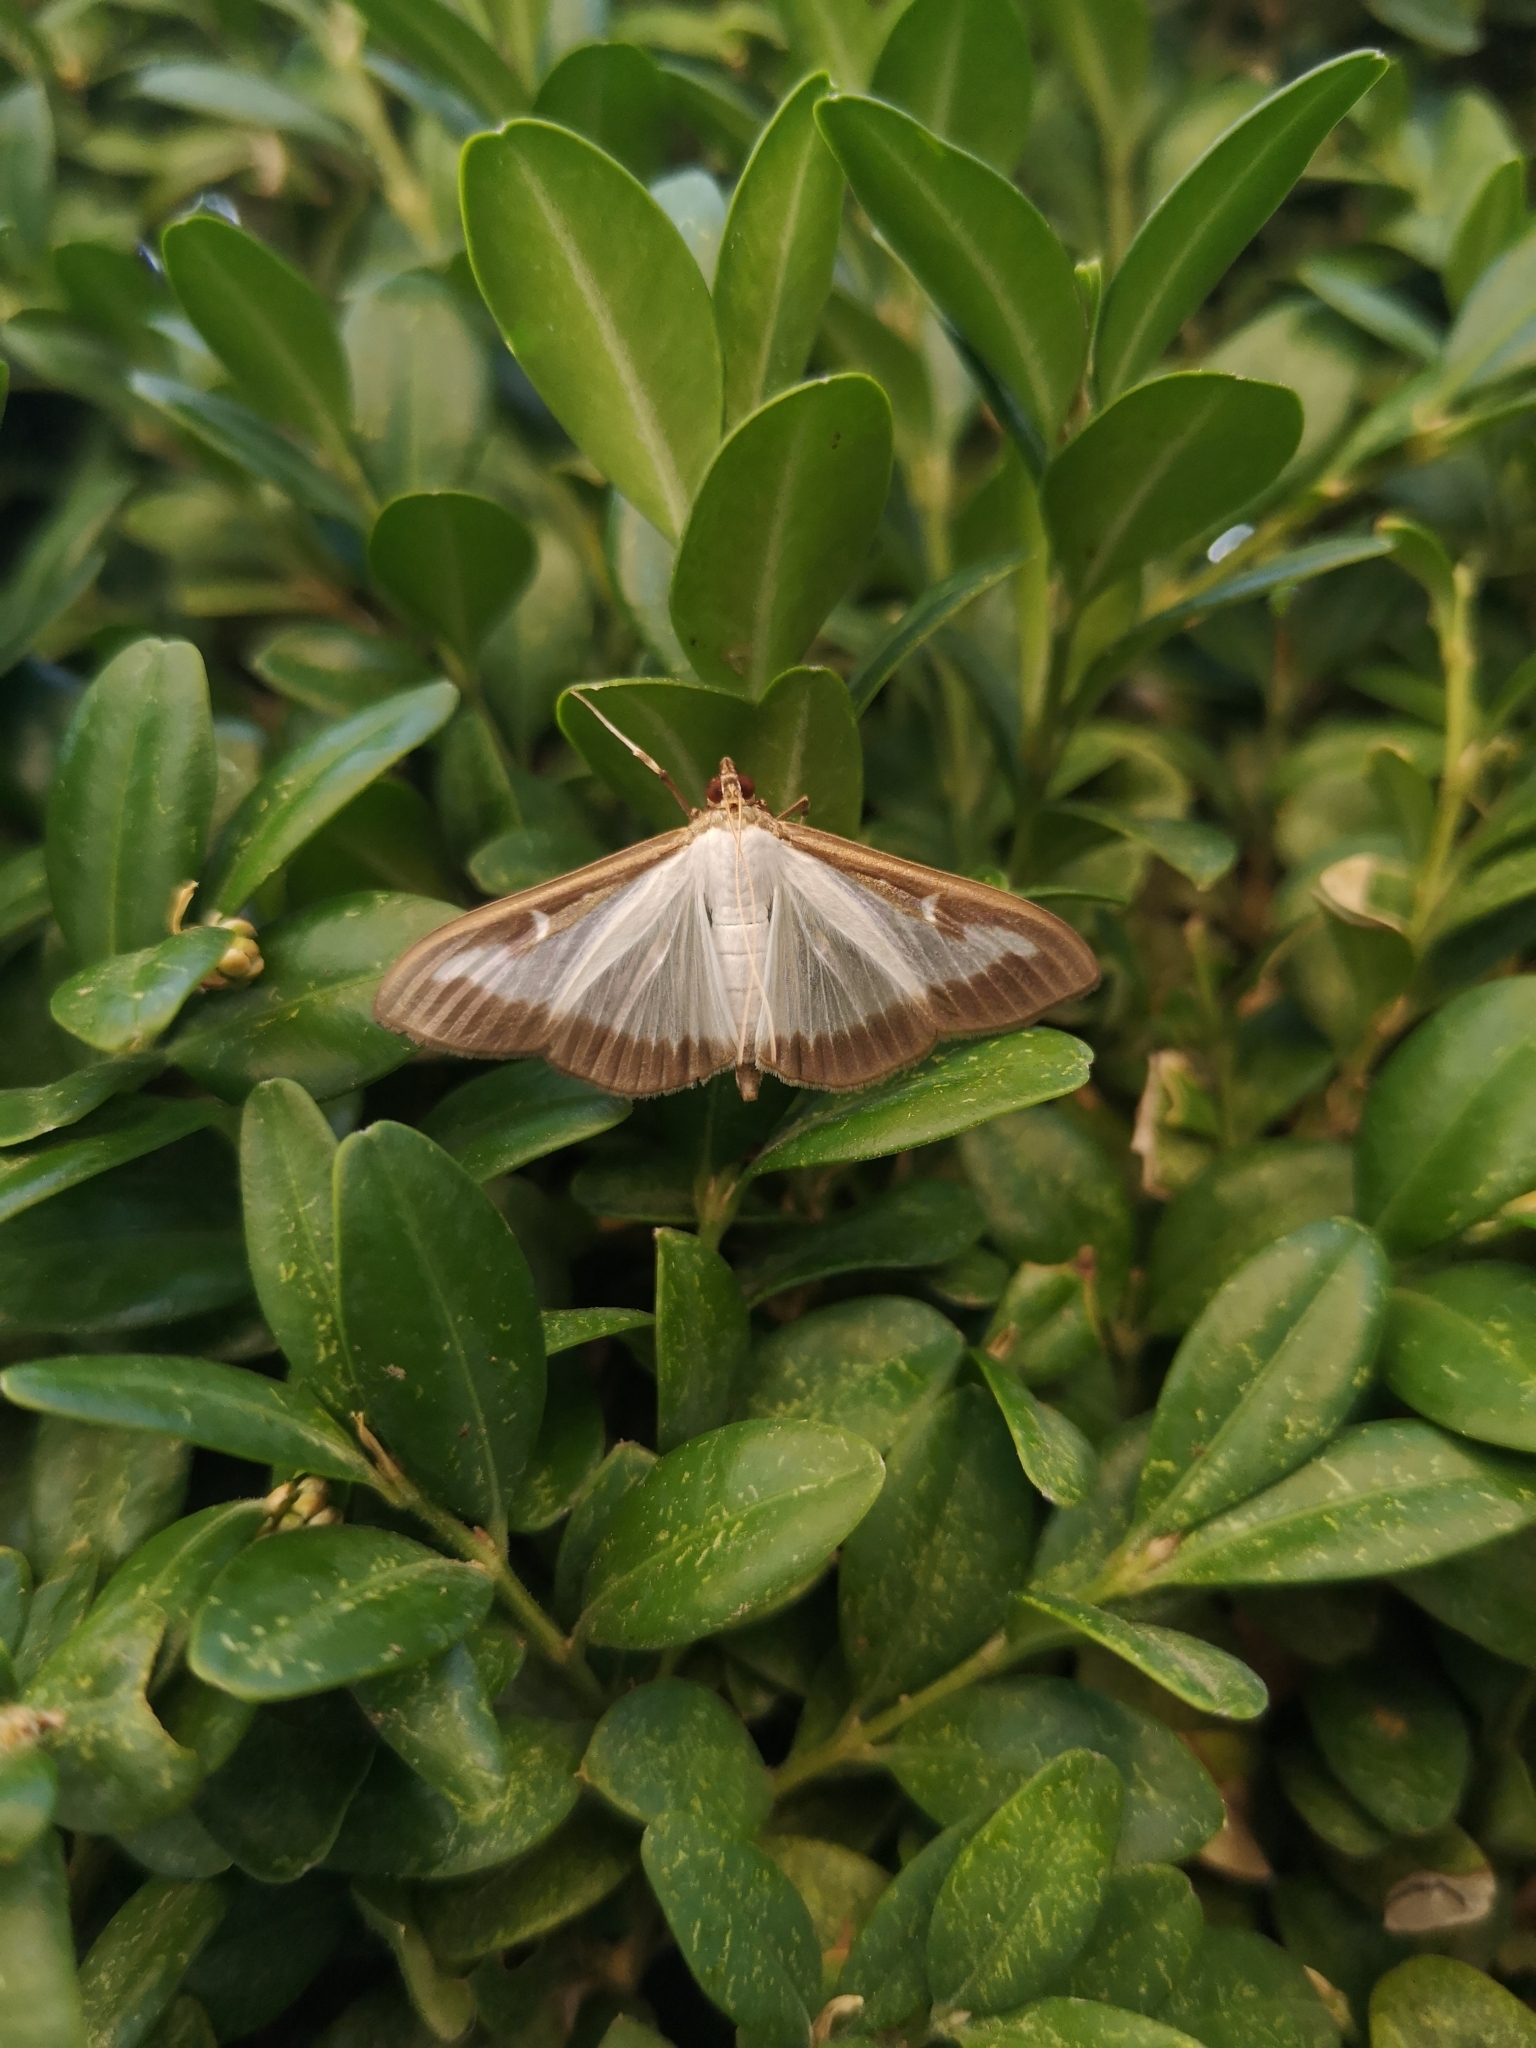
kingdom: Animalia
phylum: Arthropoda
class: Insecta
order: Lepidoptera
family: Crambidae
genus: Cydalima
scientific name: Cydalima perspectalis
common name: Box tree moth
